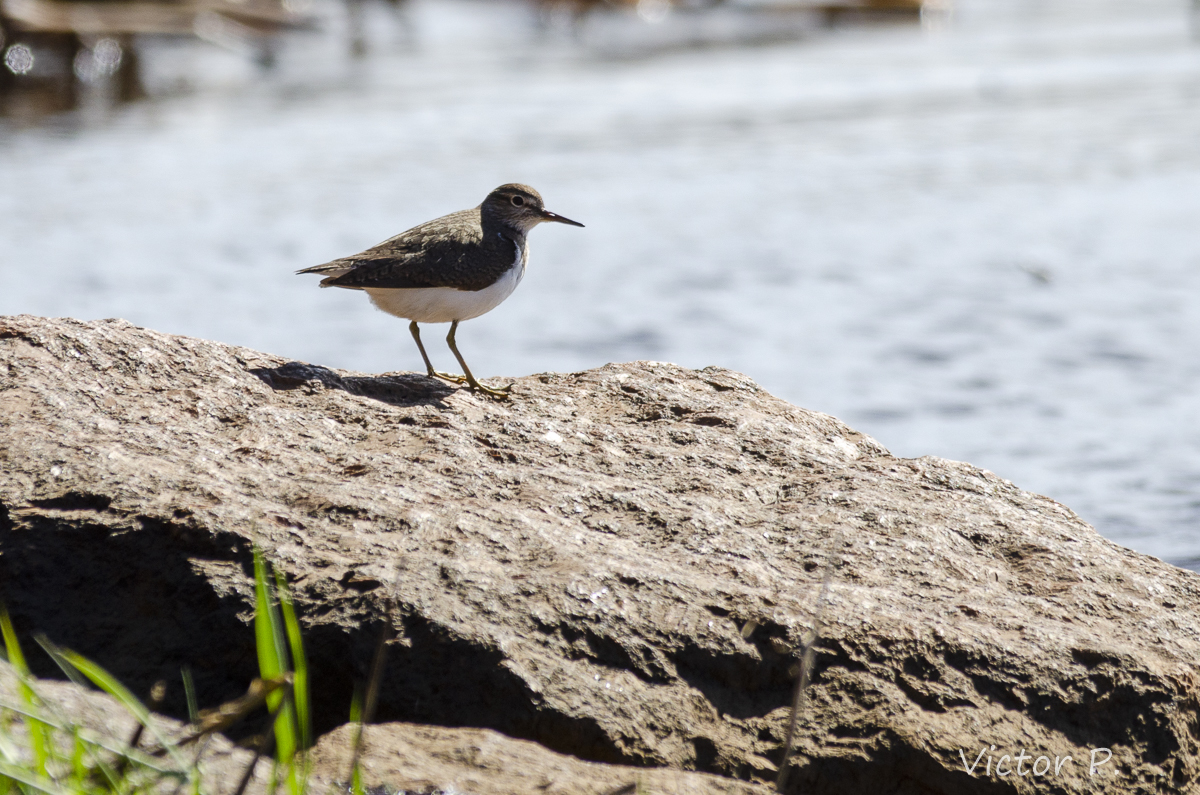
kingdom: Animalia
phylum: Chordata
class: Aves
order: Charadriiformes
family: Scolopacidae
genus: Actitis
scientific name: Actitis hypoleucos
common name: Common sandpiper
